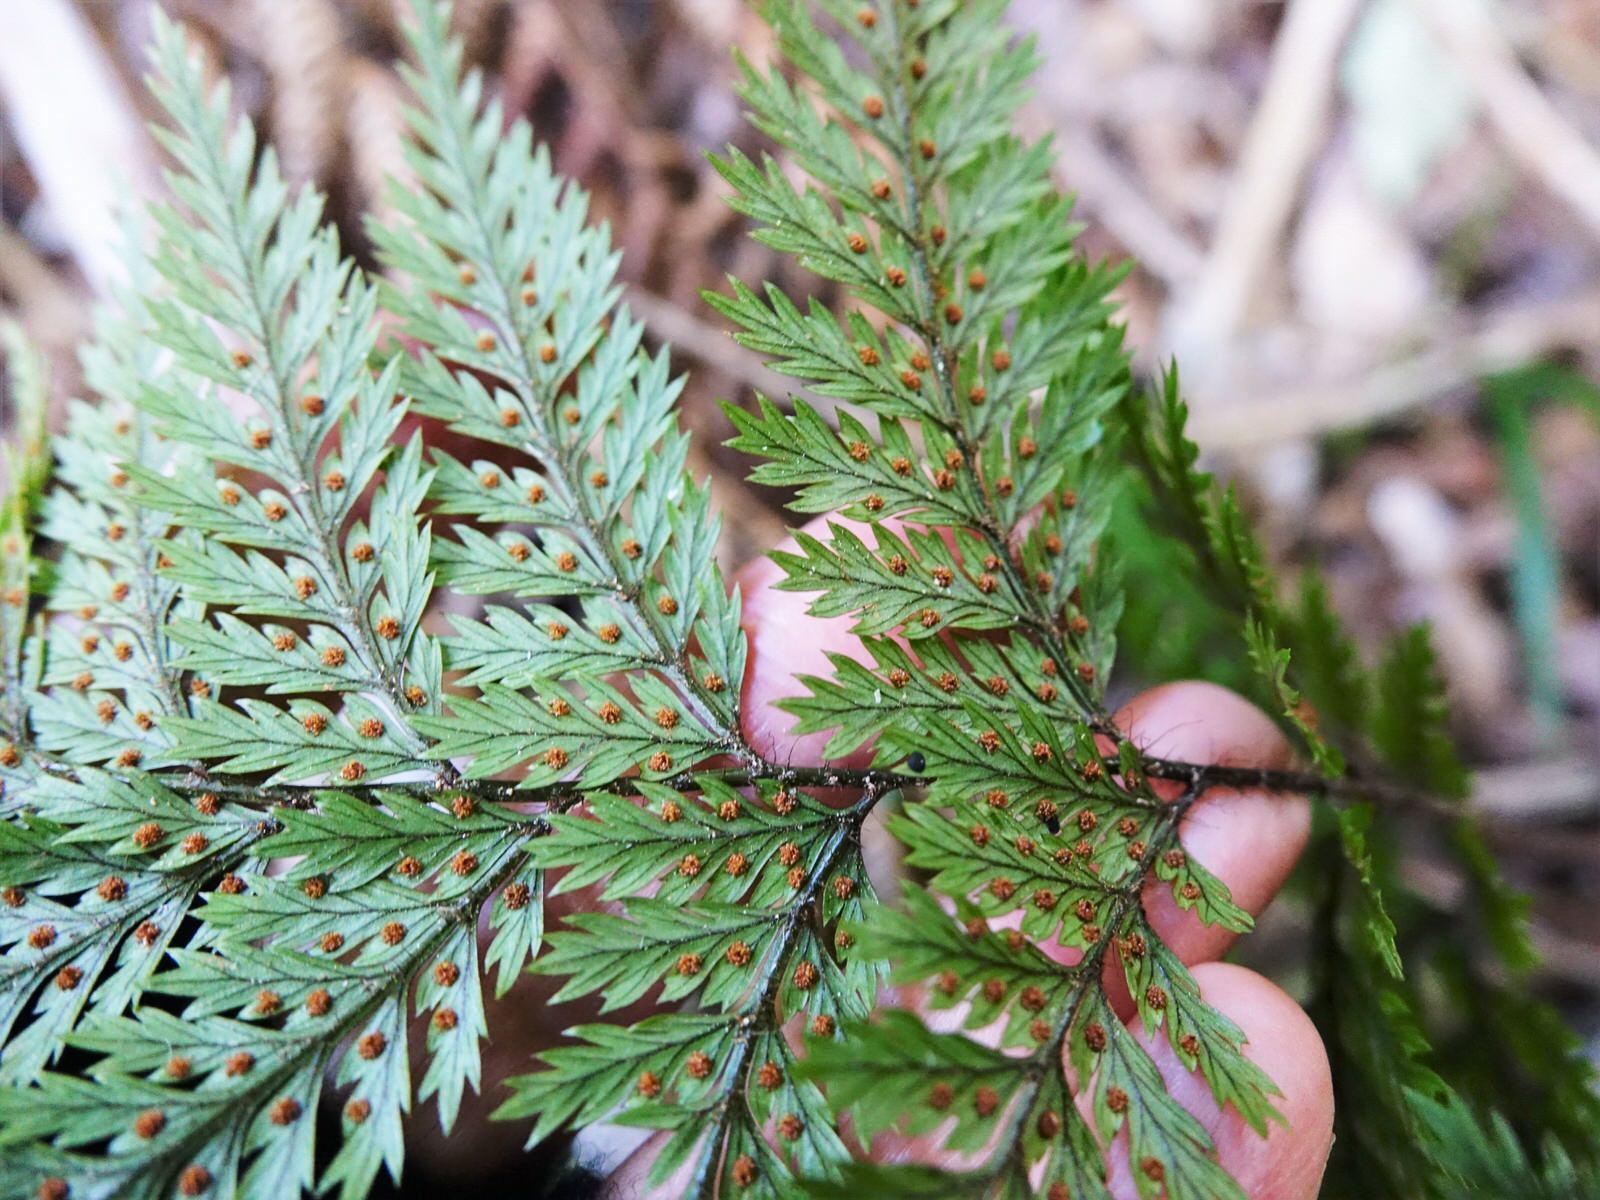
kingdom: Plantae
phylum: Tracheophyta
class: Polypodiopsida
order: Polypodiales
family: Dryopteridaceae
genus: Lastreopsis
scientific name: Lastreopsis hispida
